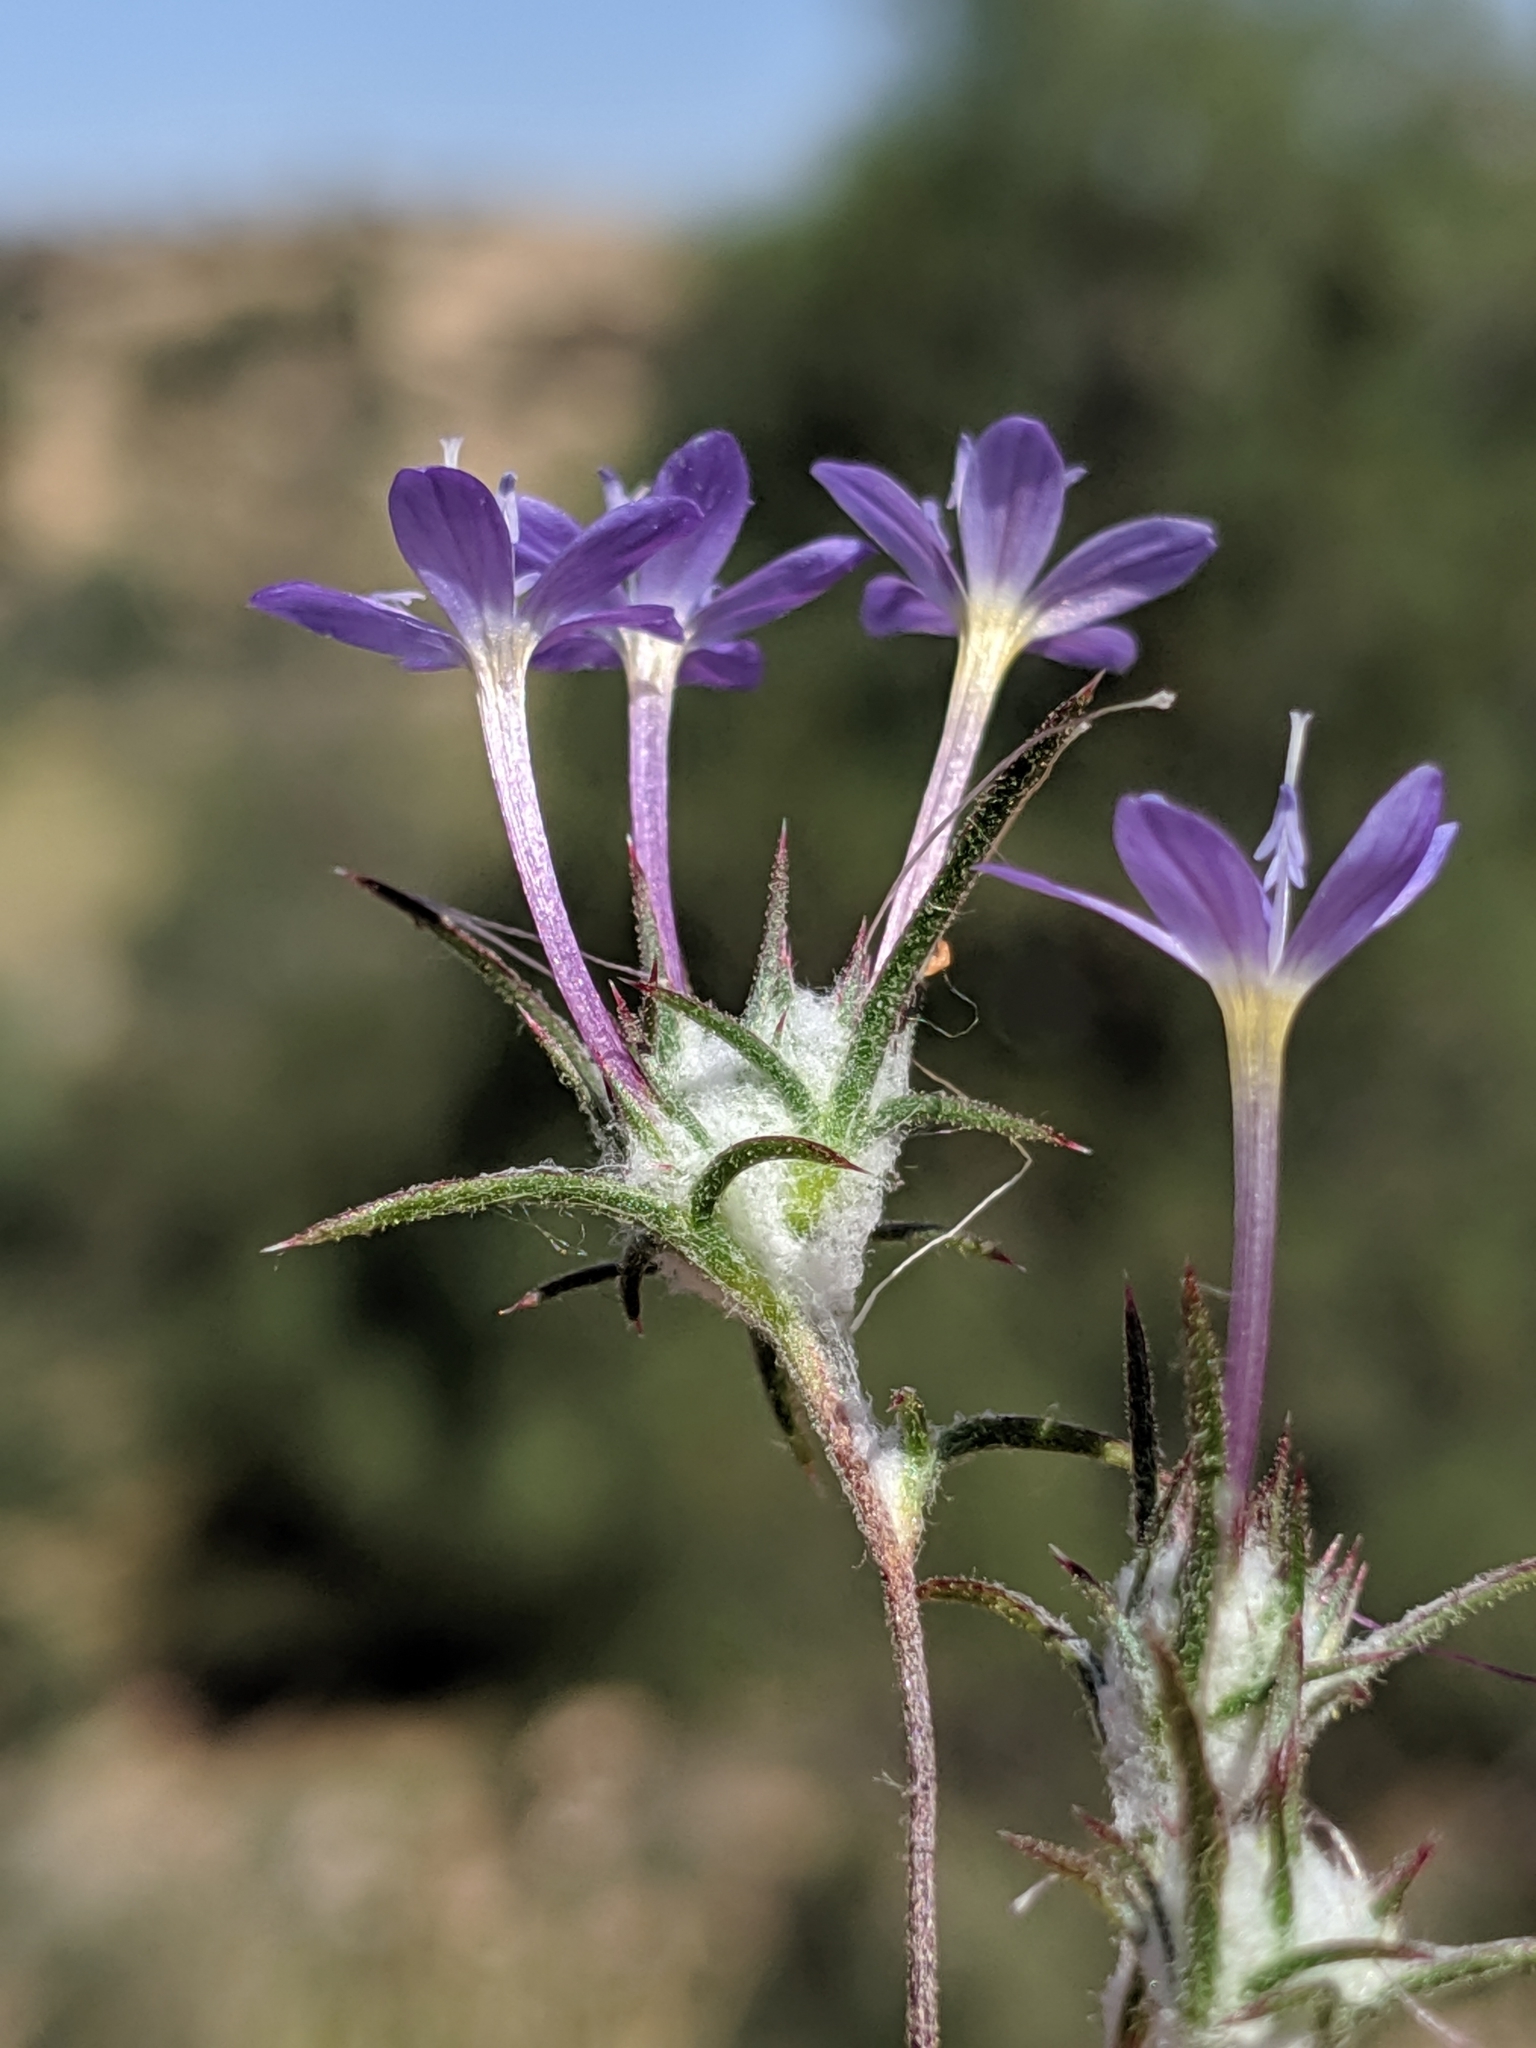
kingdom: Plantae
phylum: Tracheophyta
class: Magnoliopsida
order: Ericales
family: Polemoniaceae
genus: Eriastrum
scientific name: Eriastrum pluriflorum
